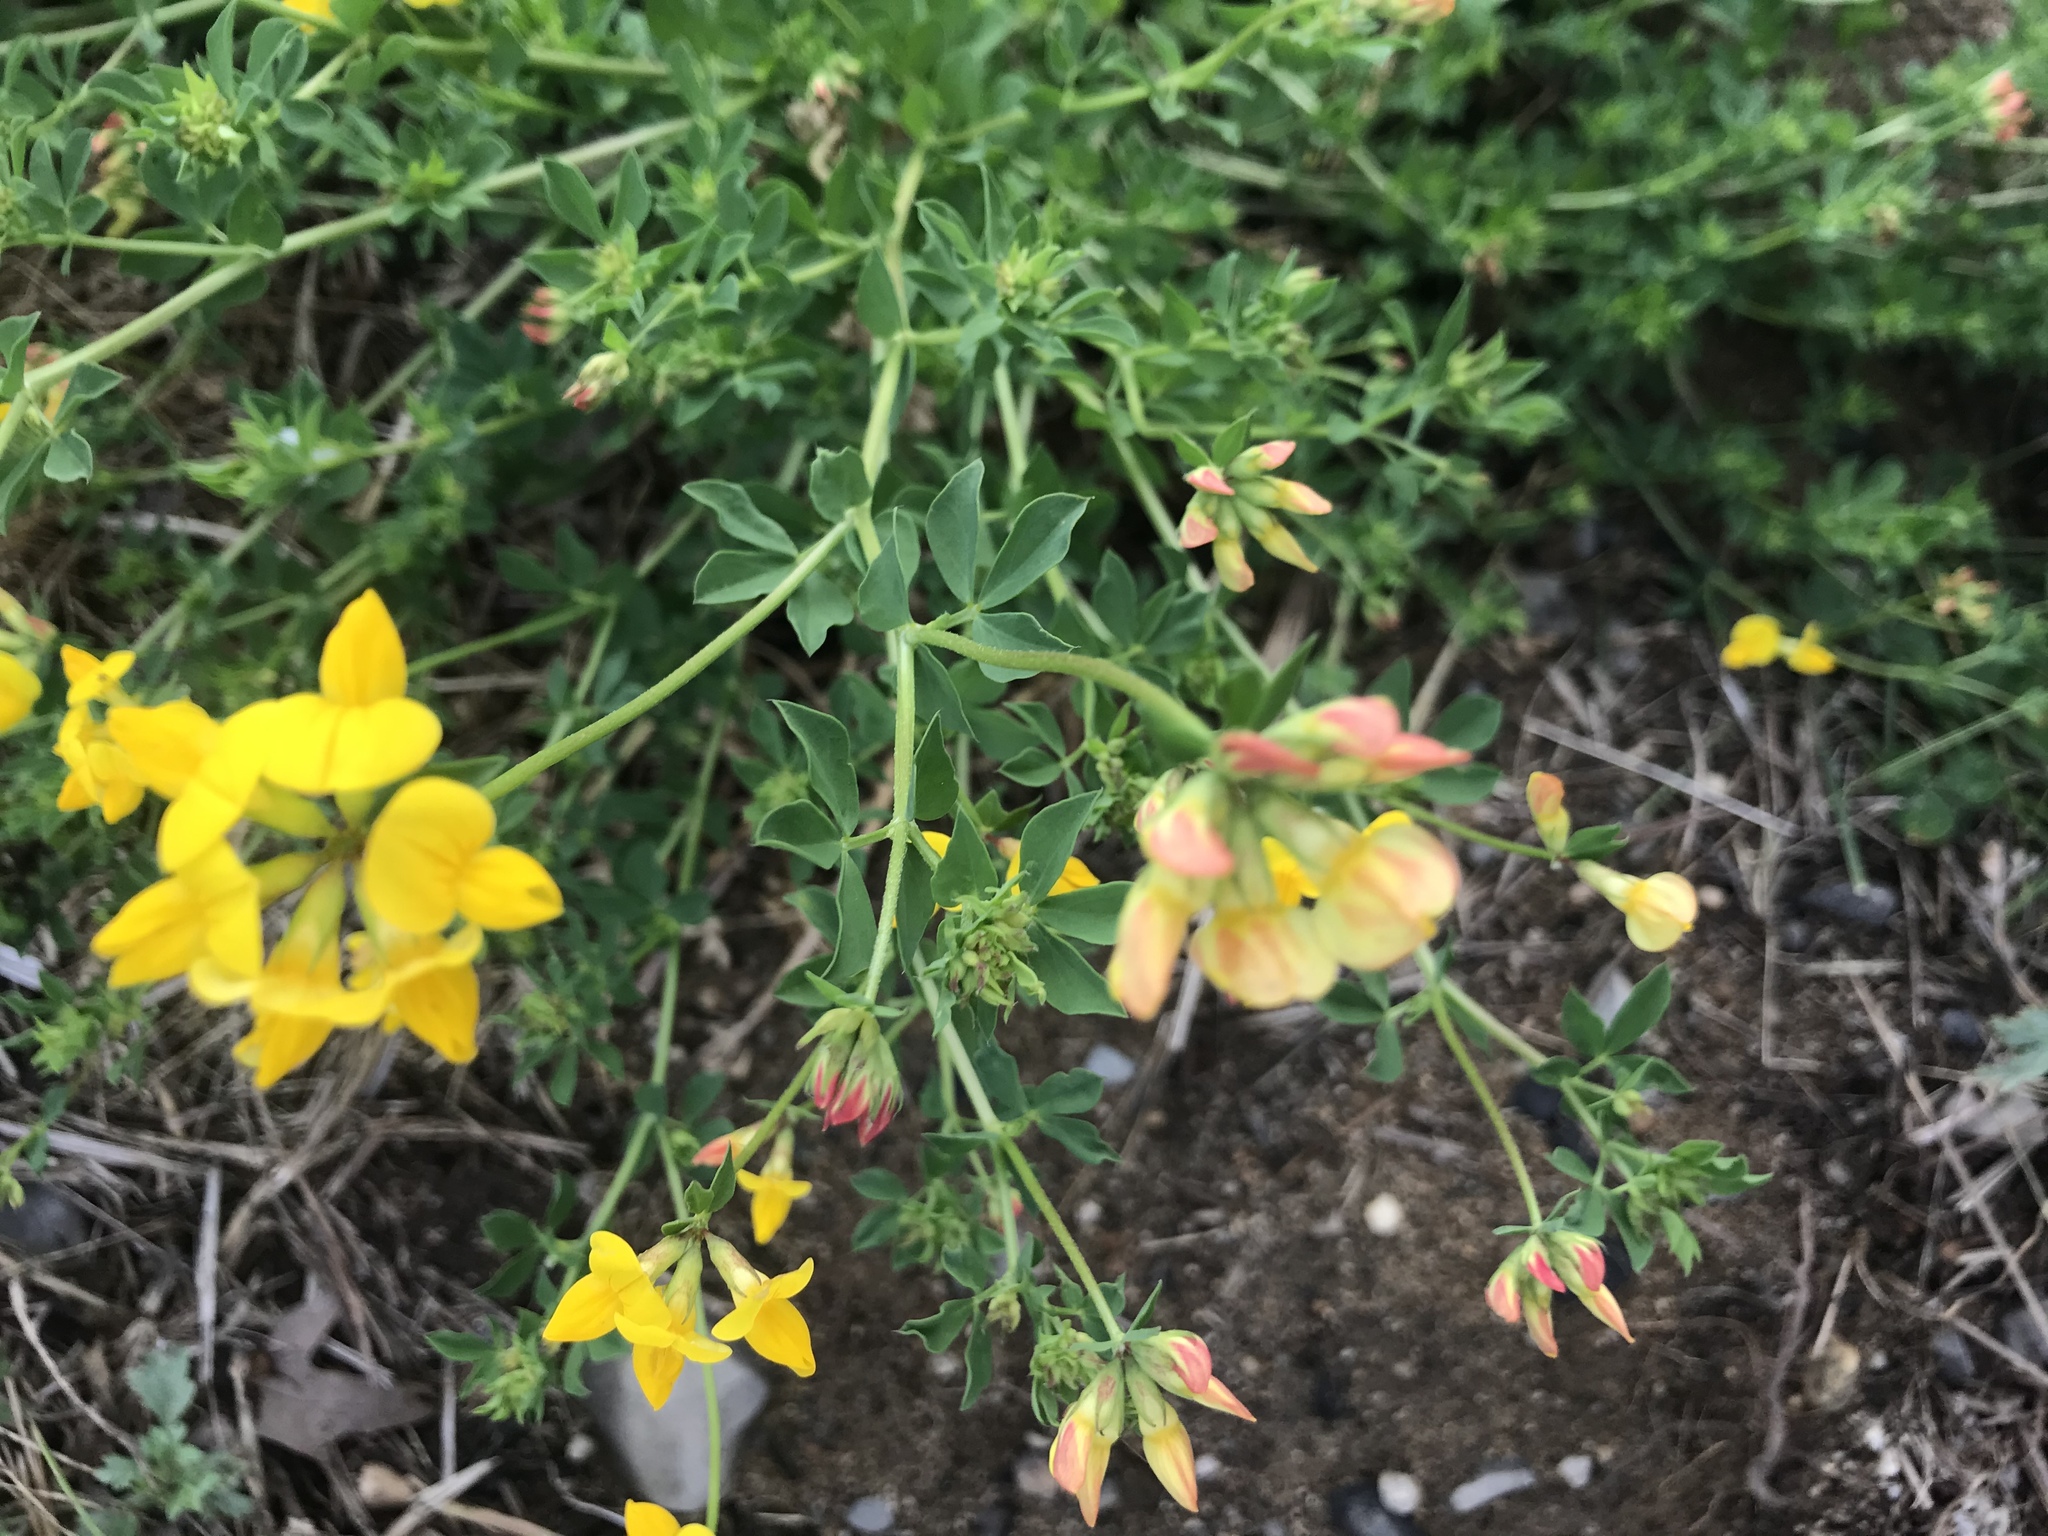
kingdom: Plantae
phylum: Tracheophyta
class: Magnoliopsida
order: Fabales
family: Fabaceae
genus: Lotus
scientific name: Lotus corniculatus
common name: Common bird's-foot-trefoil
